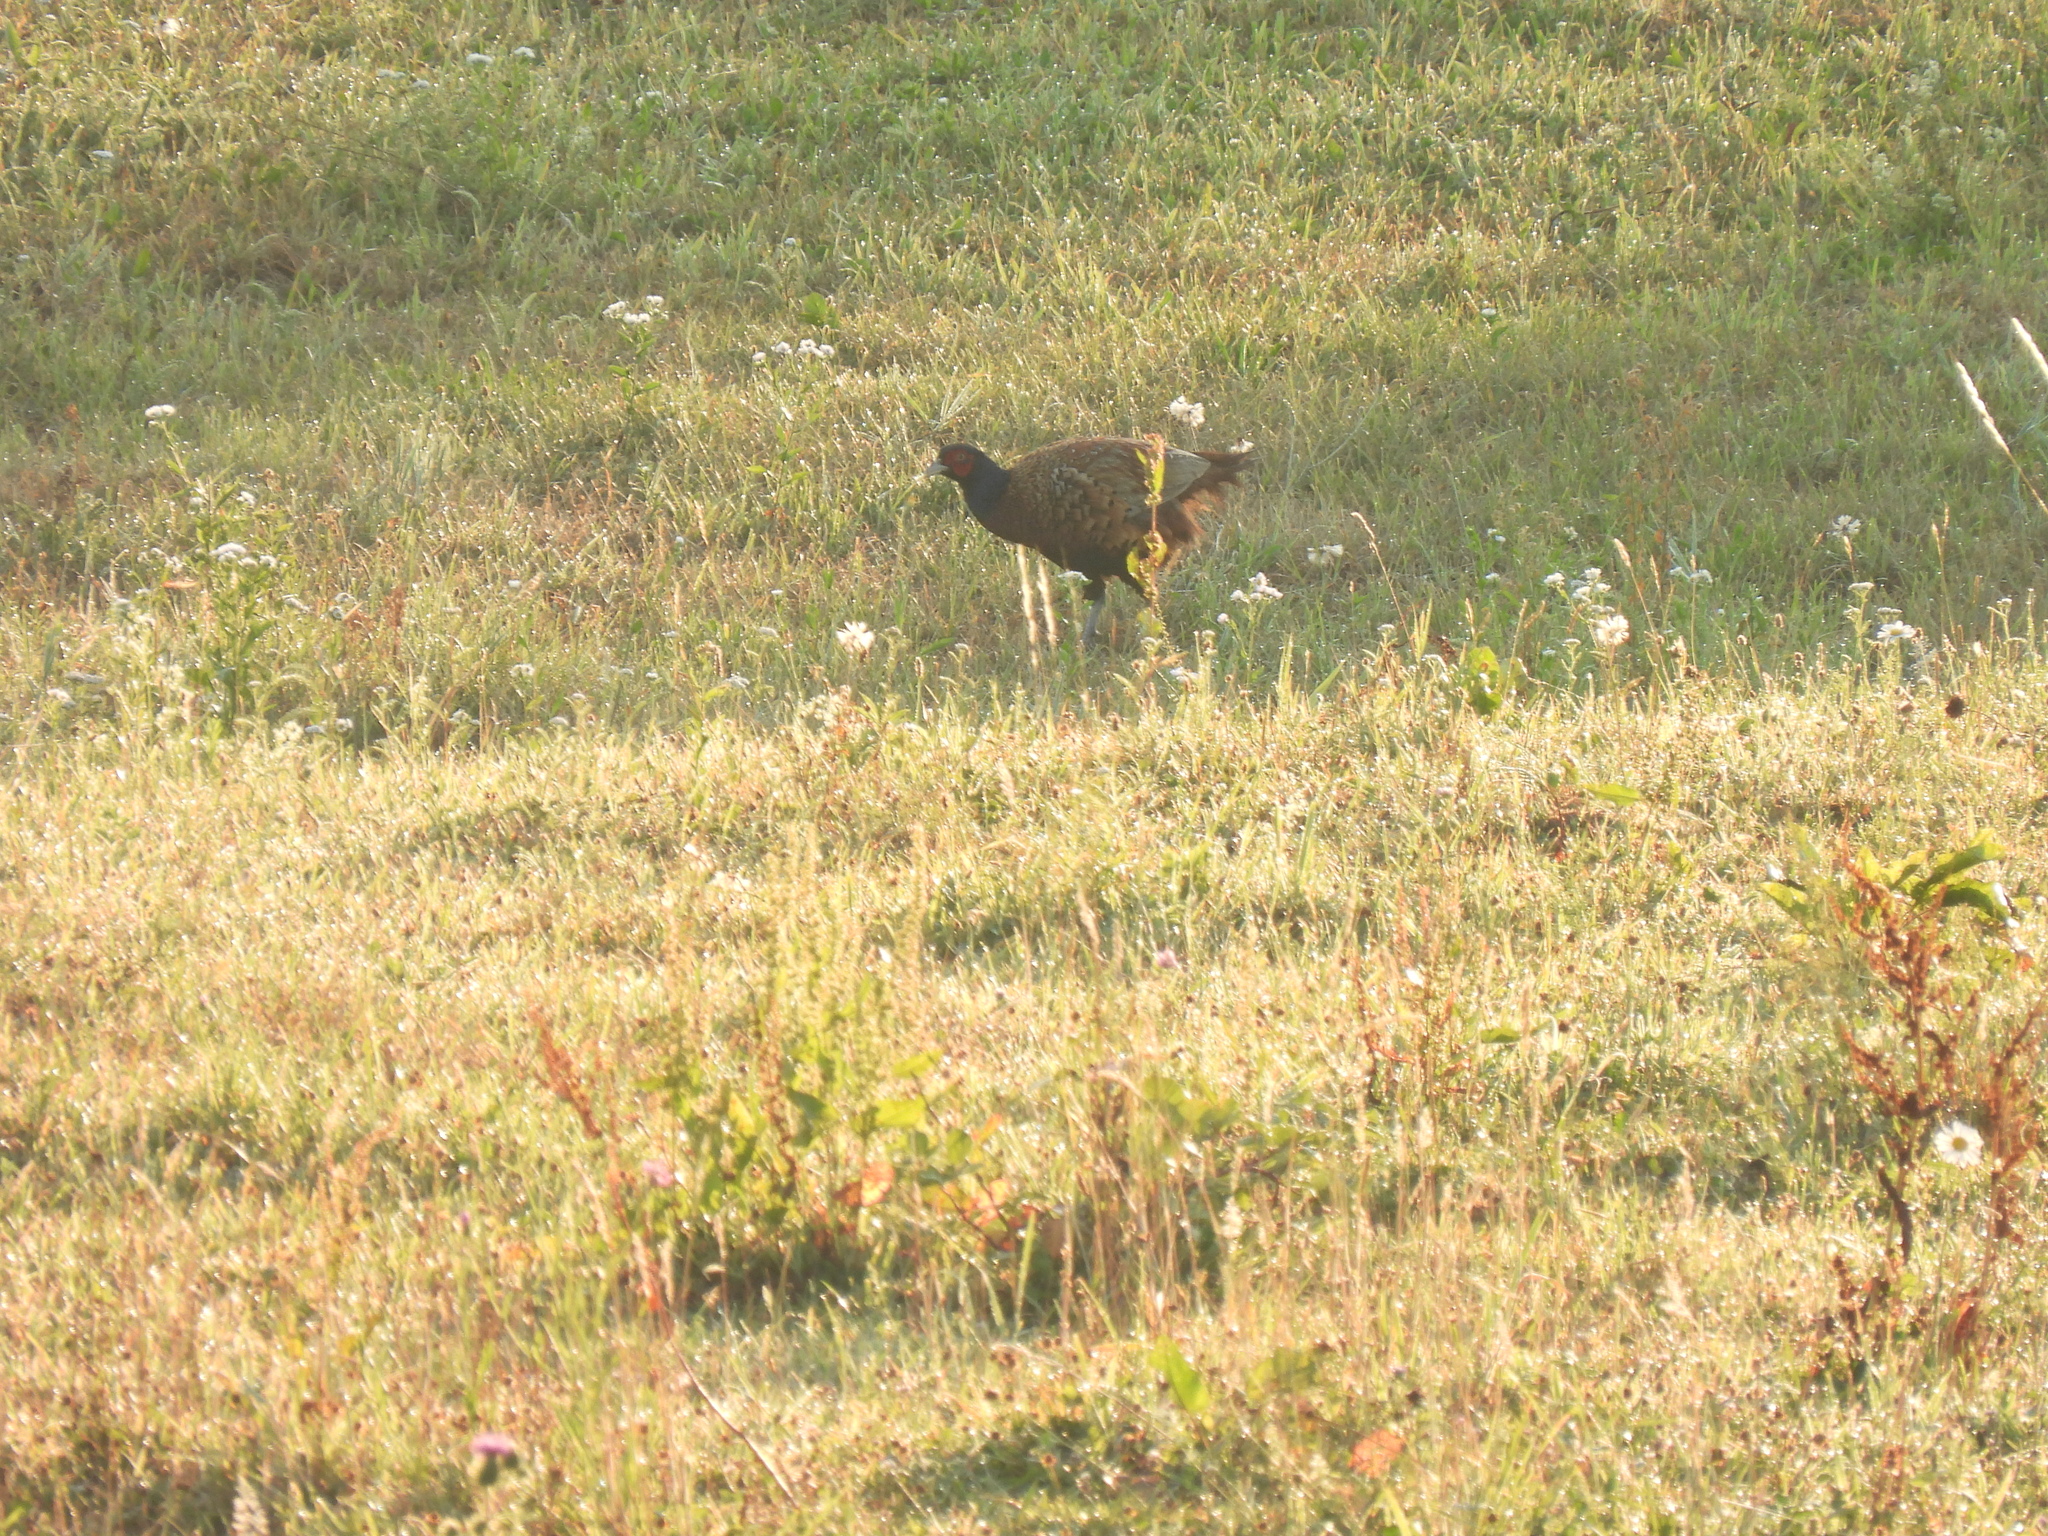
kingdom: Animalia
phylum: Chordata
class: Aves
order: Galliformes
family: Phasianidae
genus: Phasianus
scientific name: Phasianus colchicus
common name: Common pheasant
